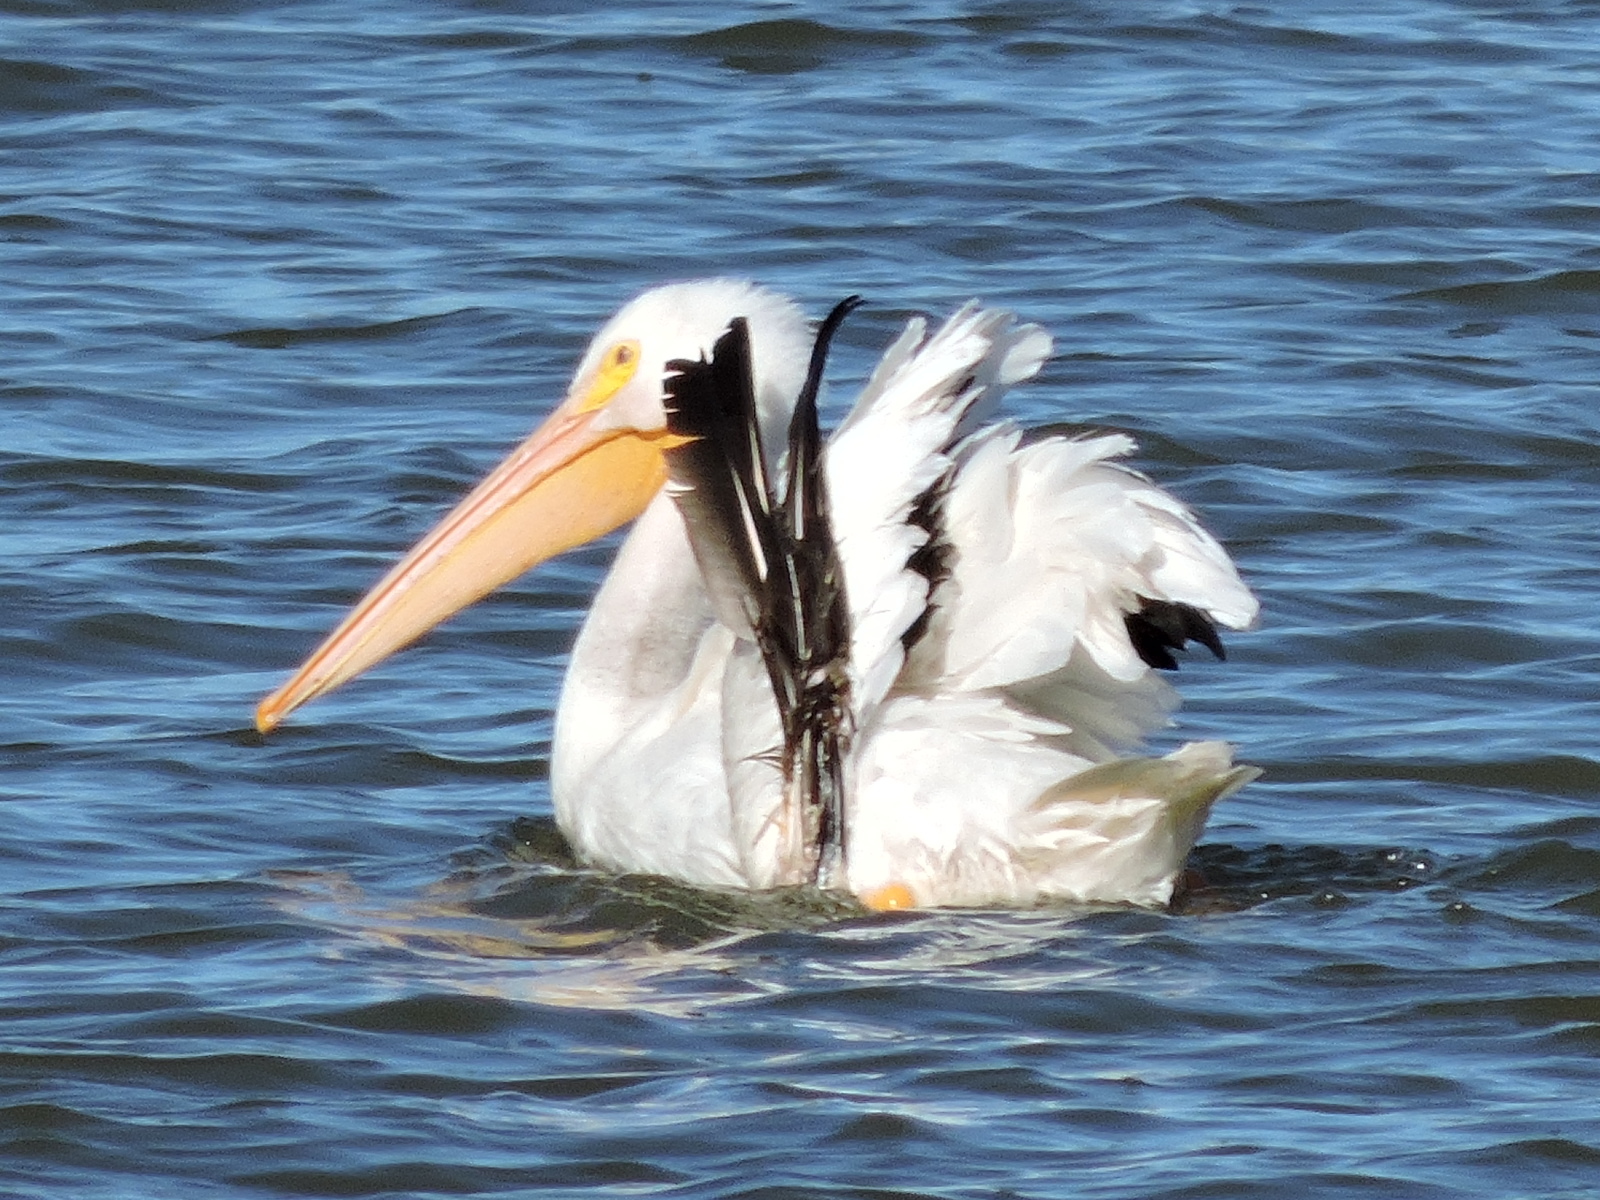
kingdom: Animalia
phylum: Chordata
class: Aves
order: Pelecaniformes
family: Pelecanidae
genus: Pelecanus
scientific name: Pelecanus erythrorhynchos
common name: American white pelican
